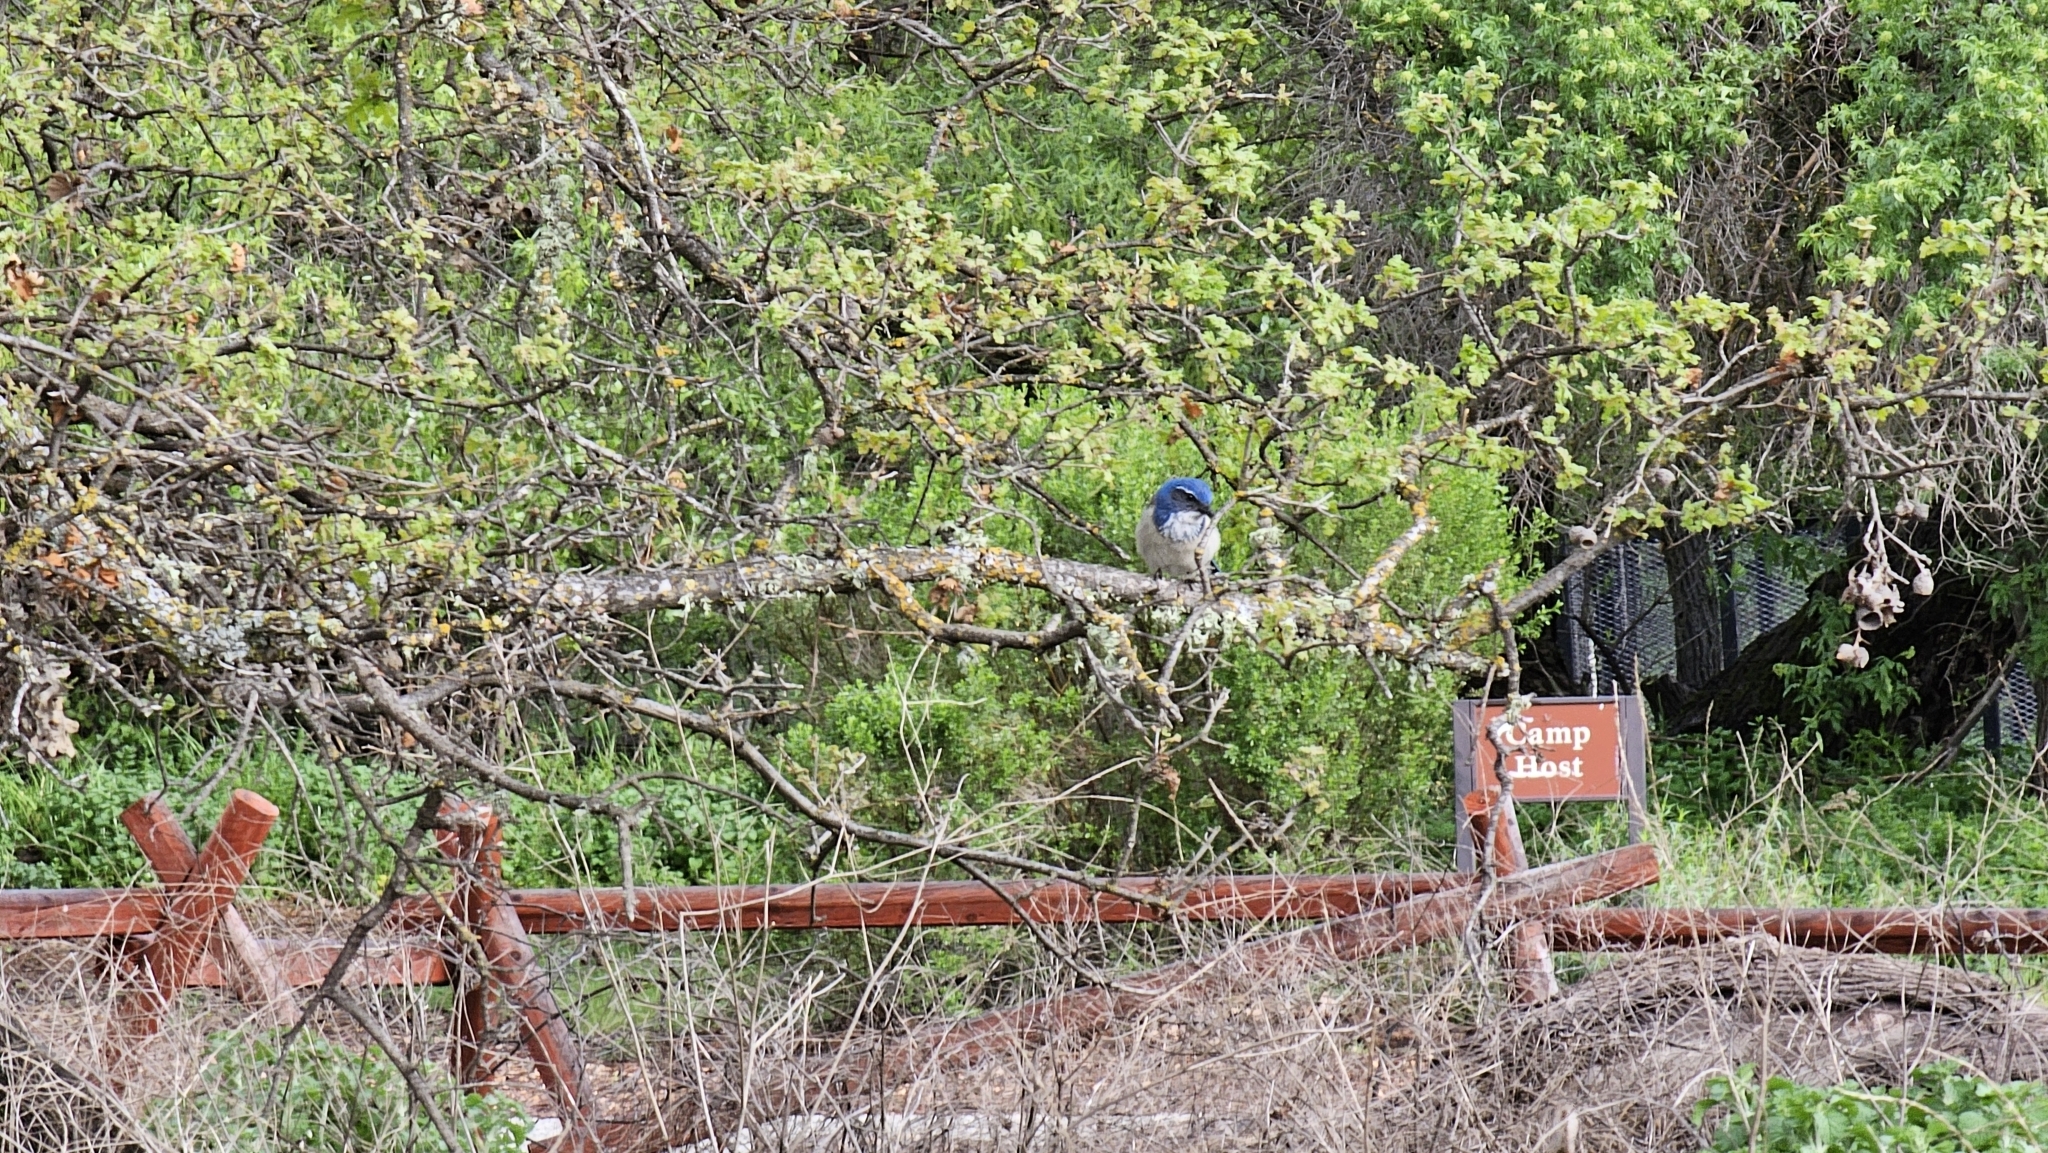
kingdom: Animalia
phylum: Chordata
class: Aves
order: Passeriformes
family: Corvidae
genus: Aphelocoma
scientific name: Aphelocoma californica
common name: California scrub-jay
